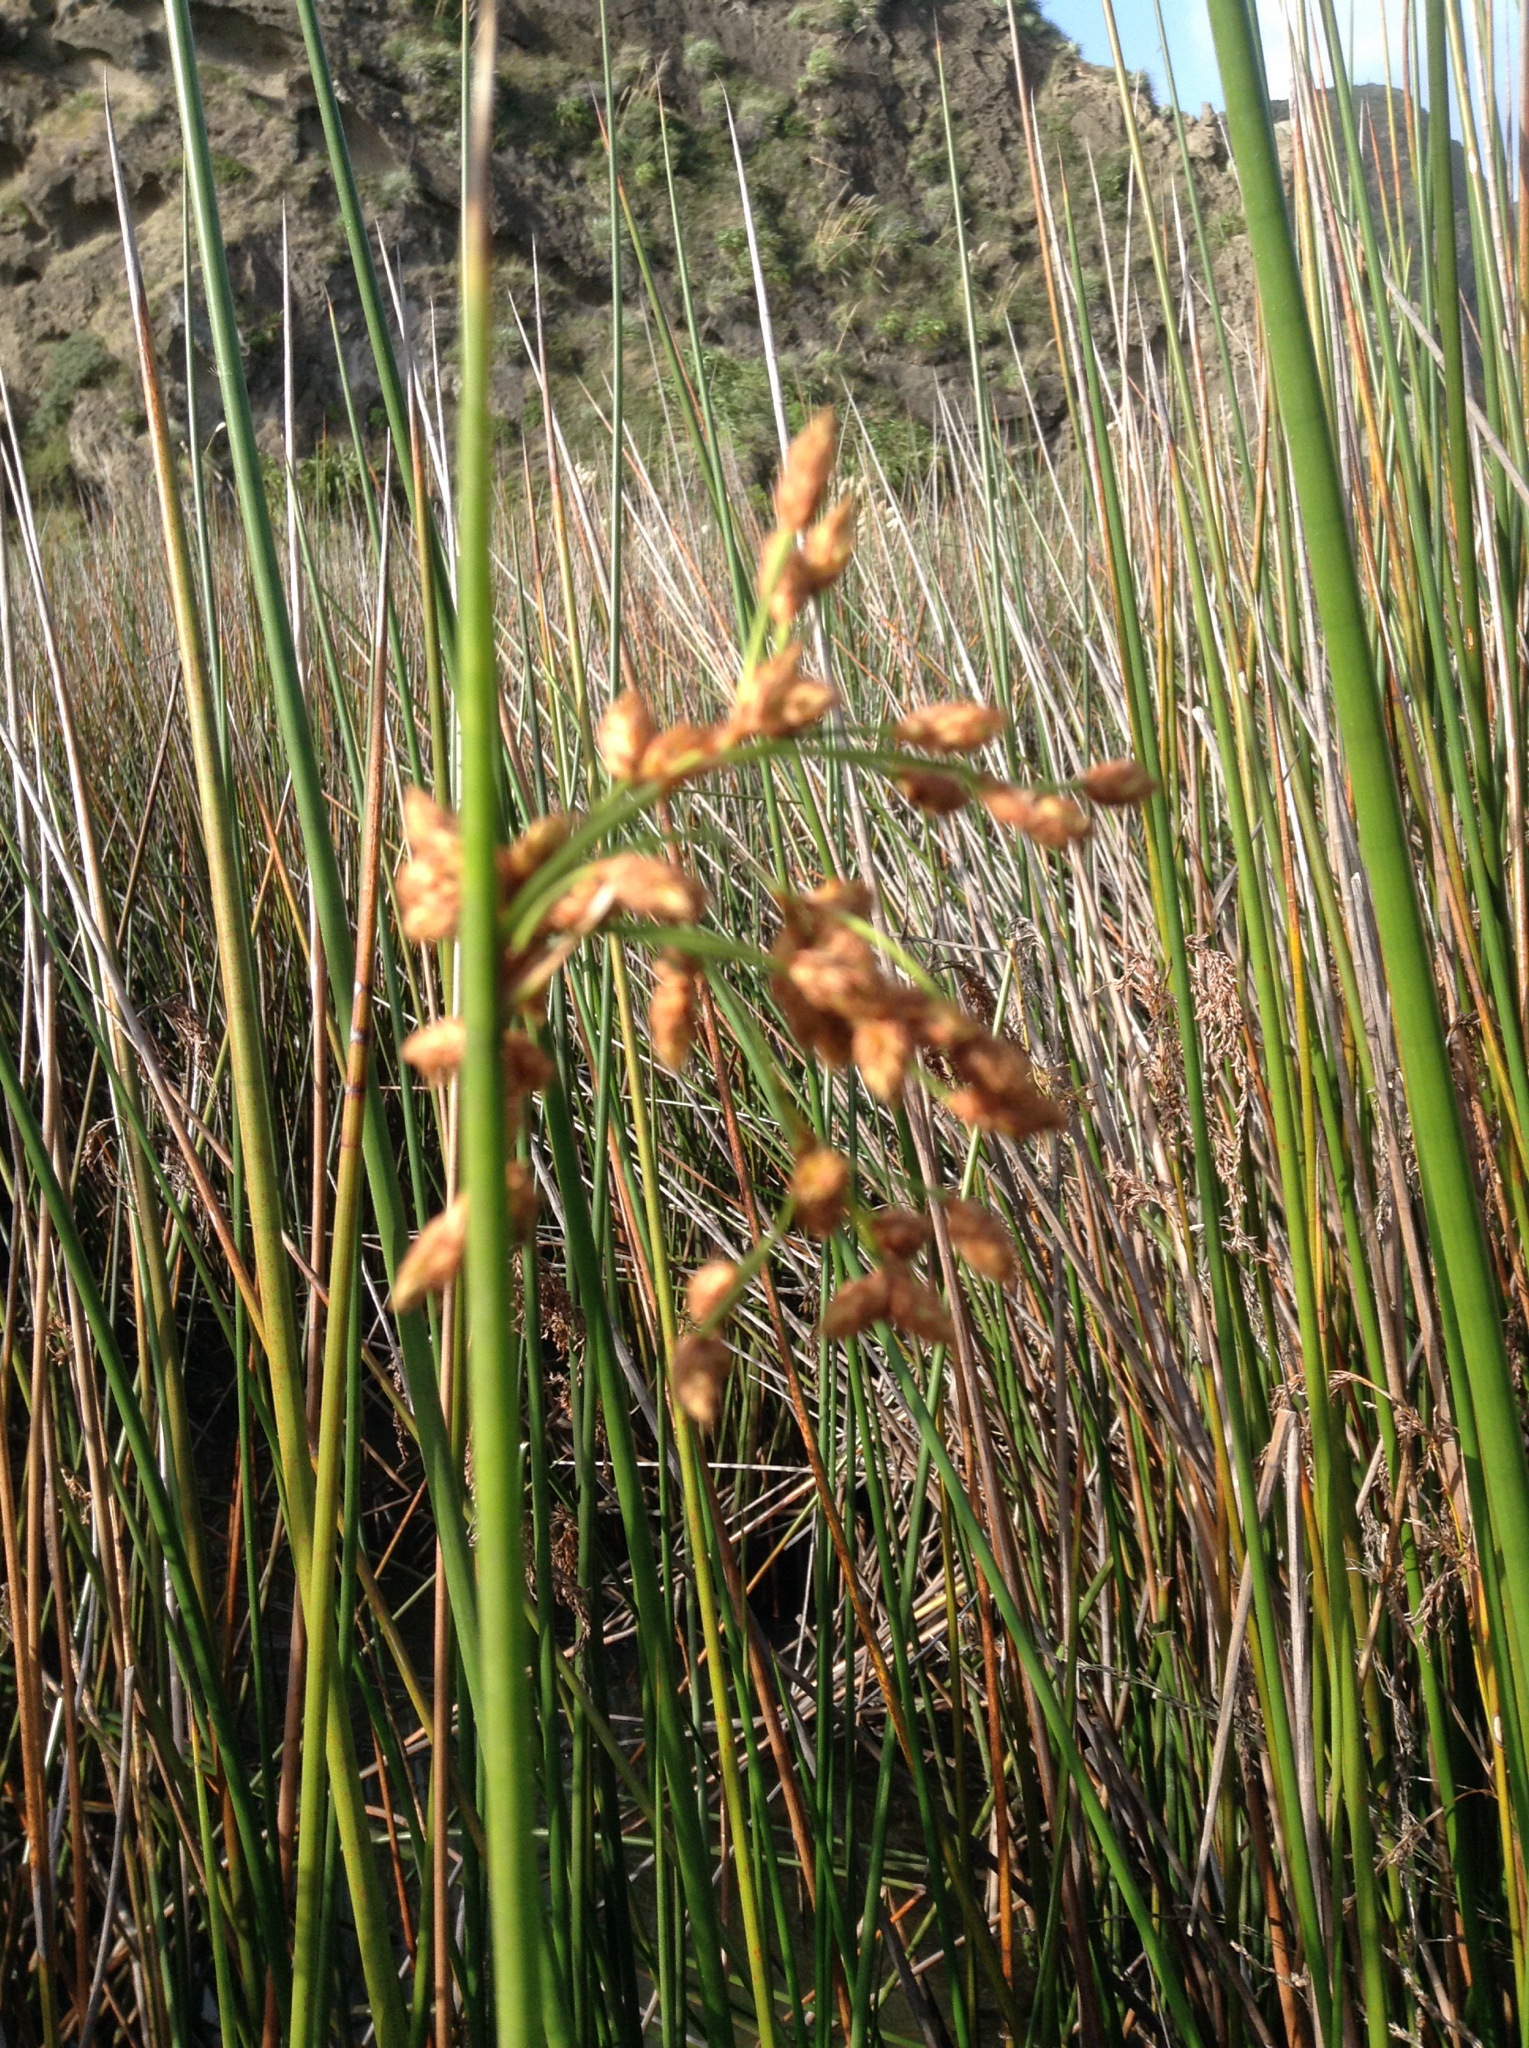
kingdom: Plantae
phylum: Tracheophyta
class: Liliopsida
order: Poales
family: Cyperaceae
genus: Schoenoplectus
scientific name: Schoenoplectus tabernaemontani
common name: Grey club-rush
